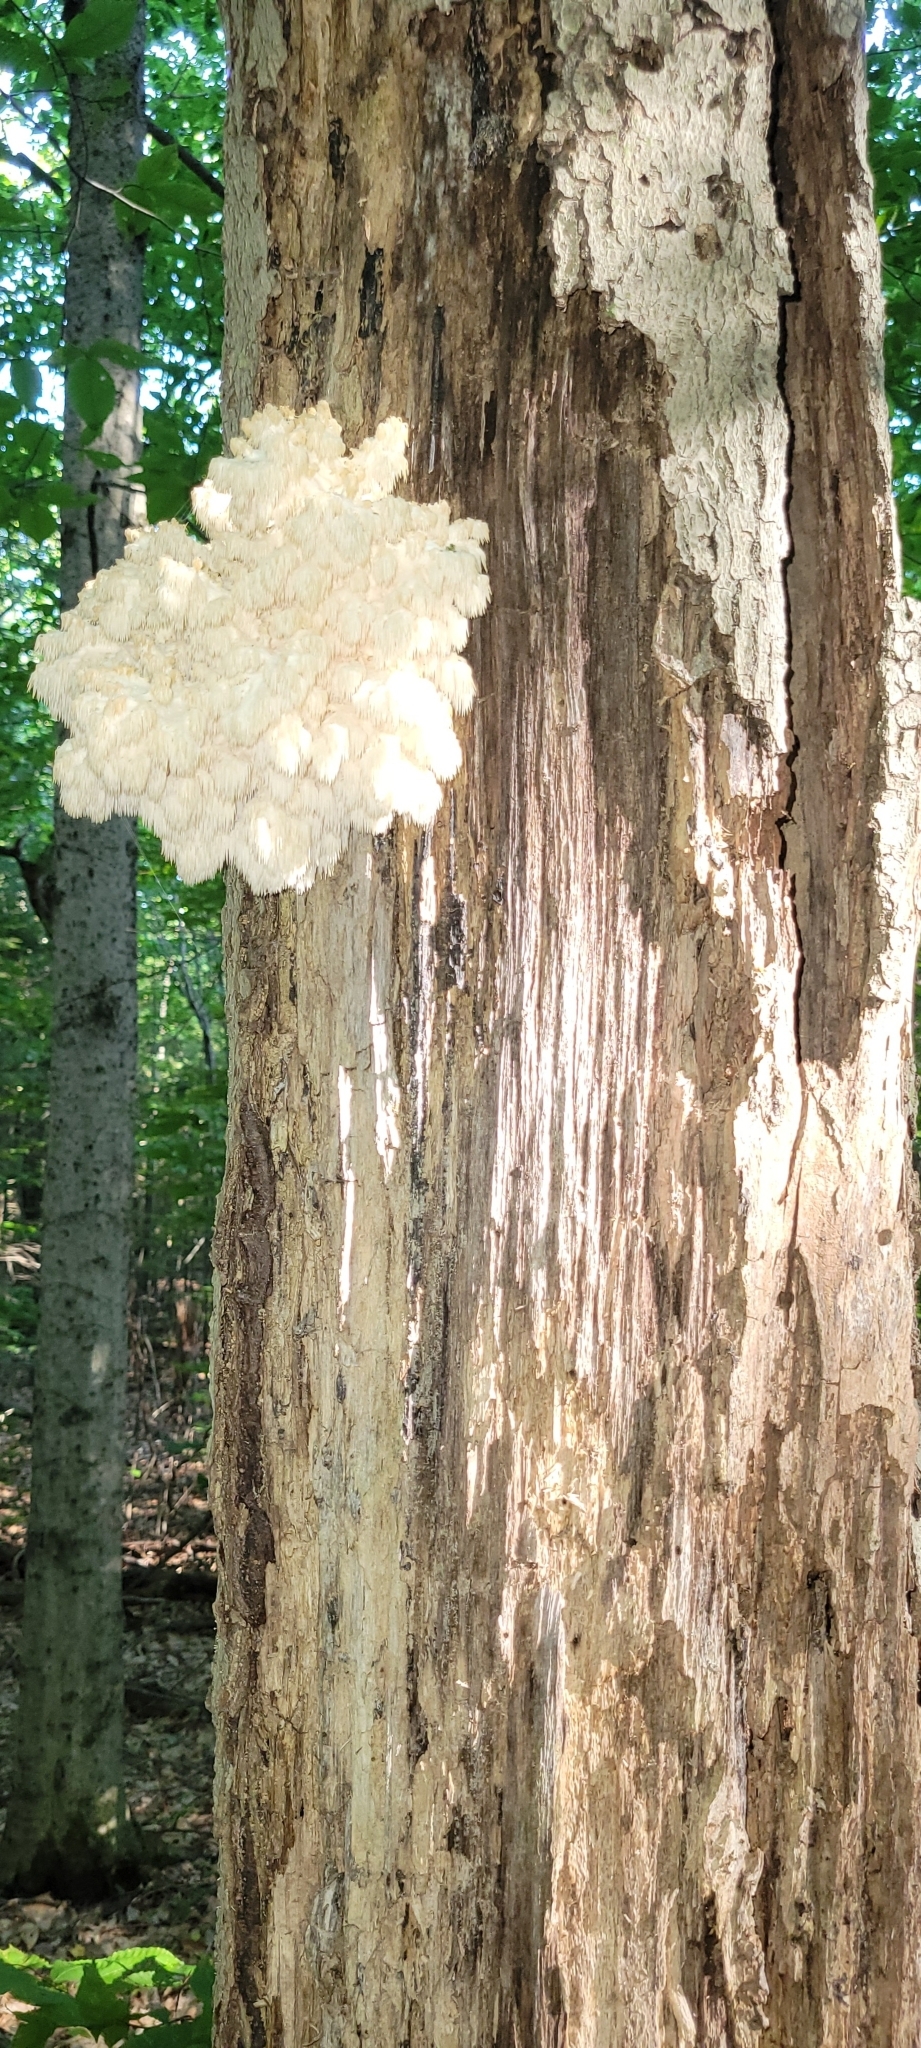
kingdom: Fungi
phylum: Basidiomycota
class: Agaricomycetes
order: Russulales
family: Hericiaceae
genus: Hericium
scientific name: Hericium americanum
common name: Bear's head tooth
